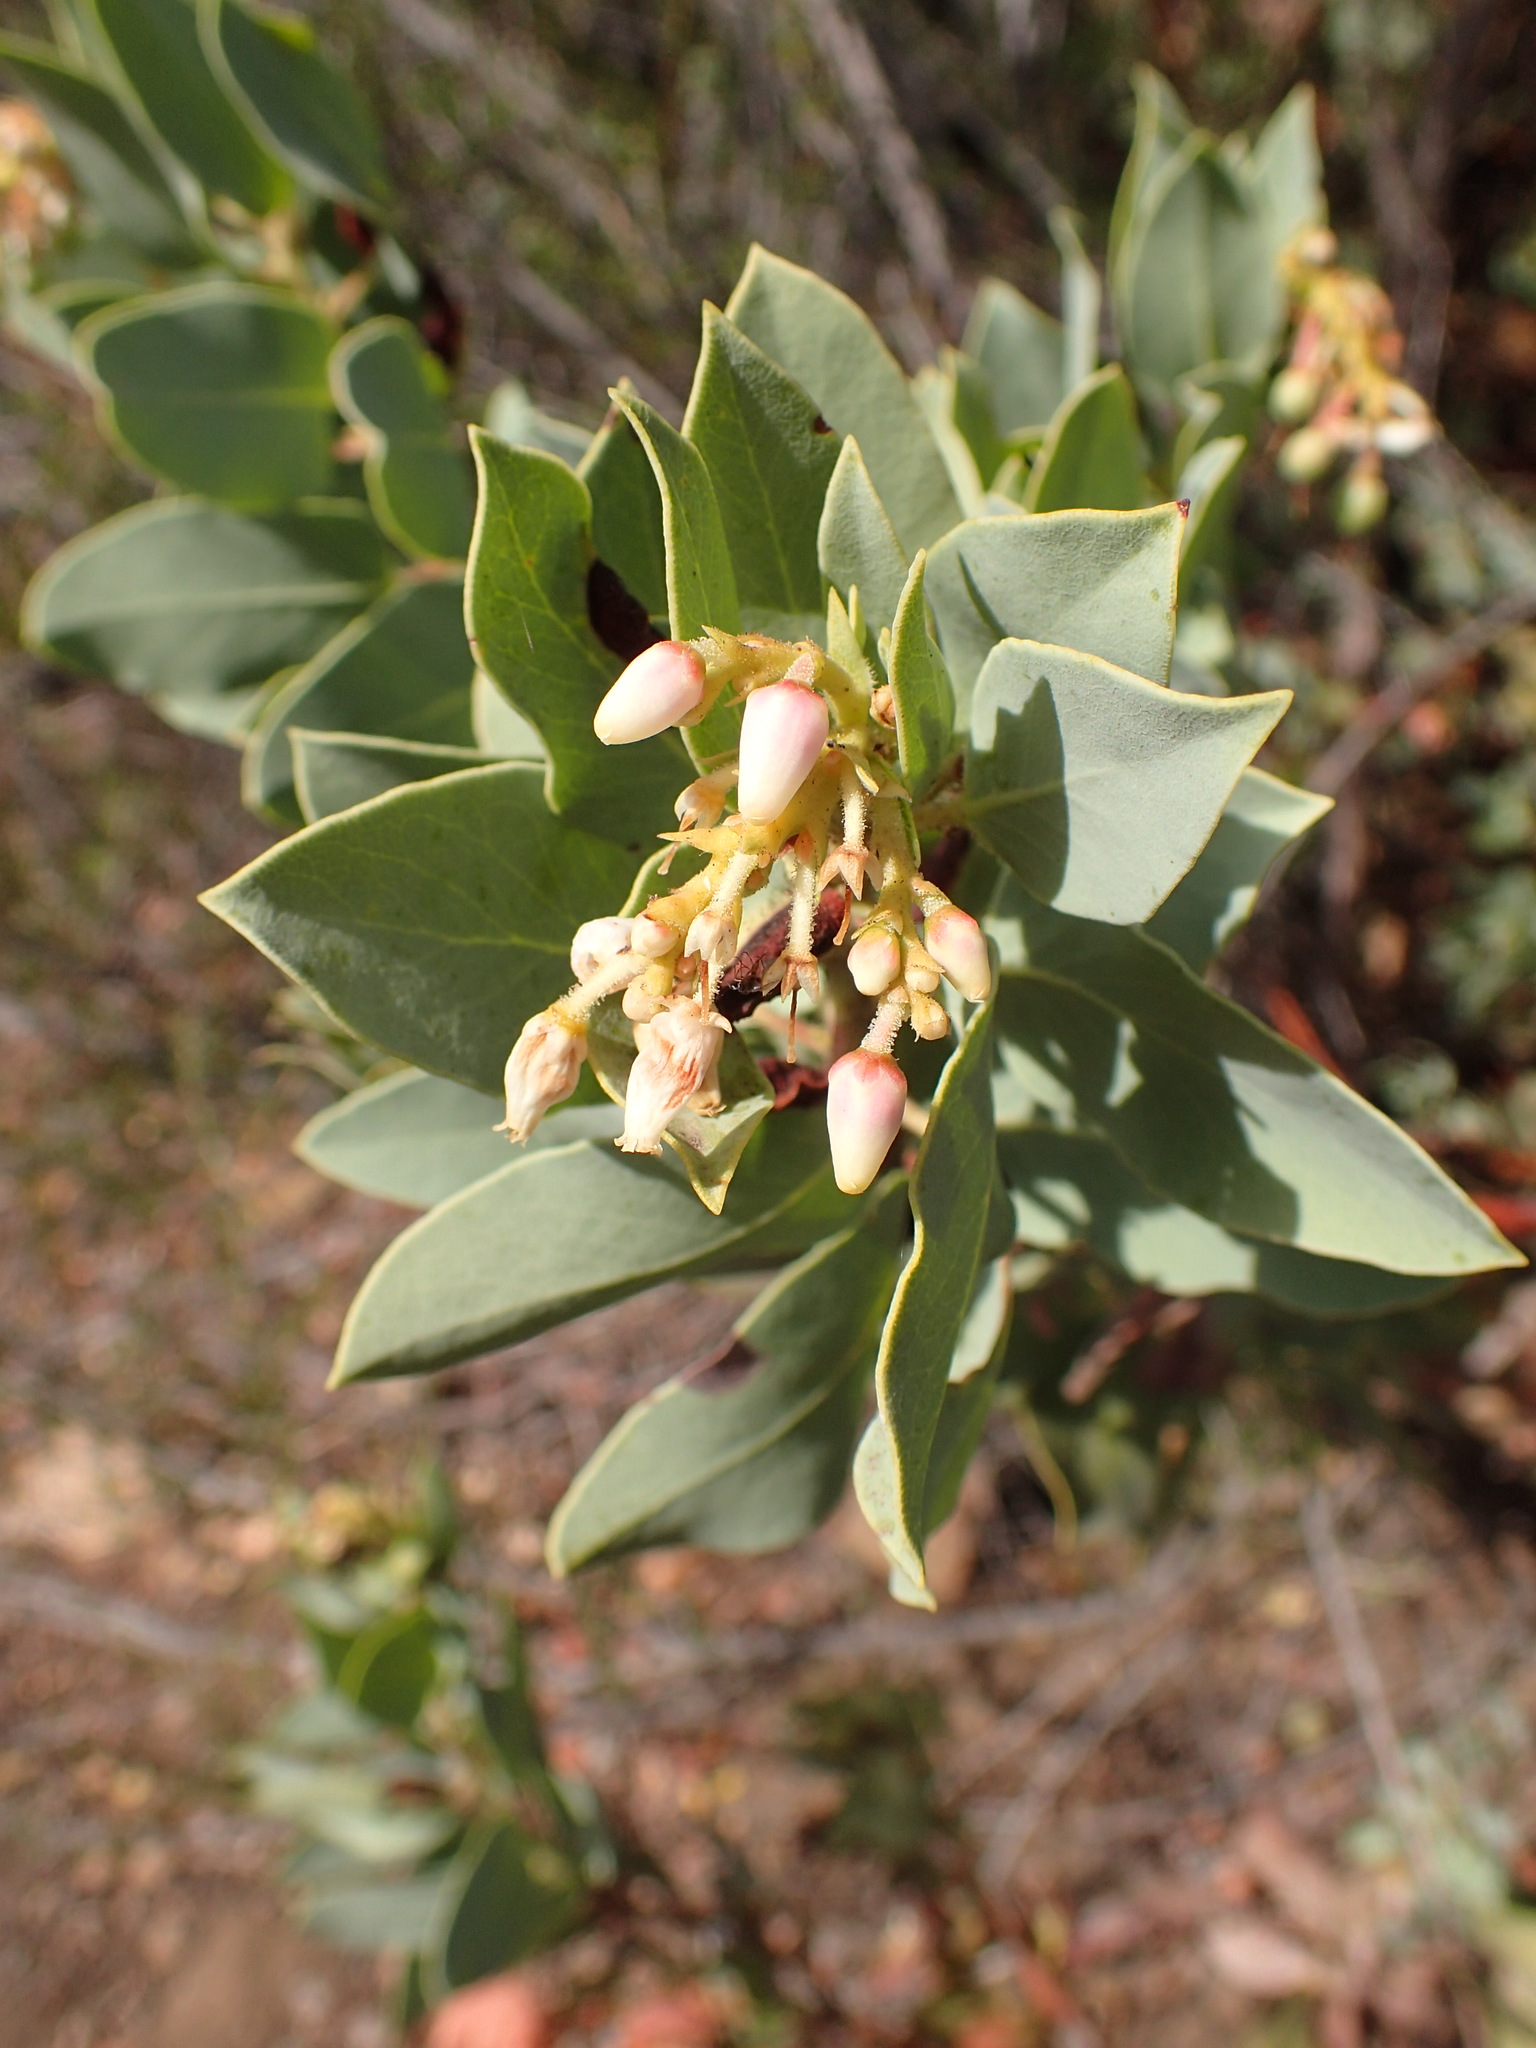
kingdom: Plantae
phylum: Tracheophyta
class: Magnoliopsida
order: Ericales
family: Ericaceae
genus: Arctostaphylos
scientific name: Arctostaphylos glauca
